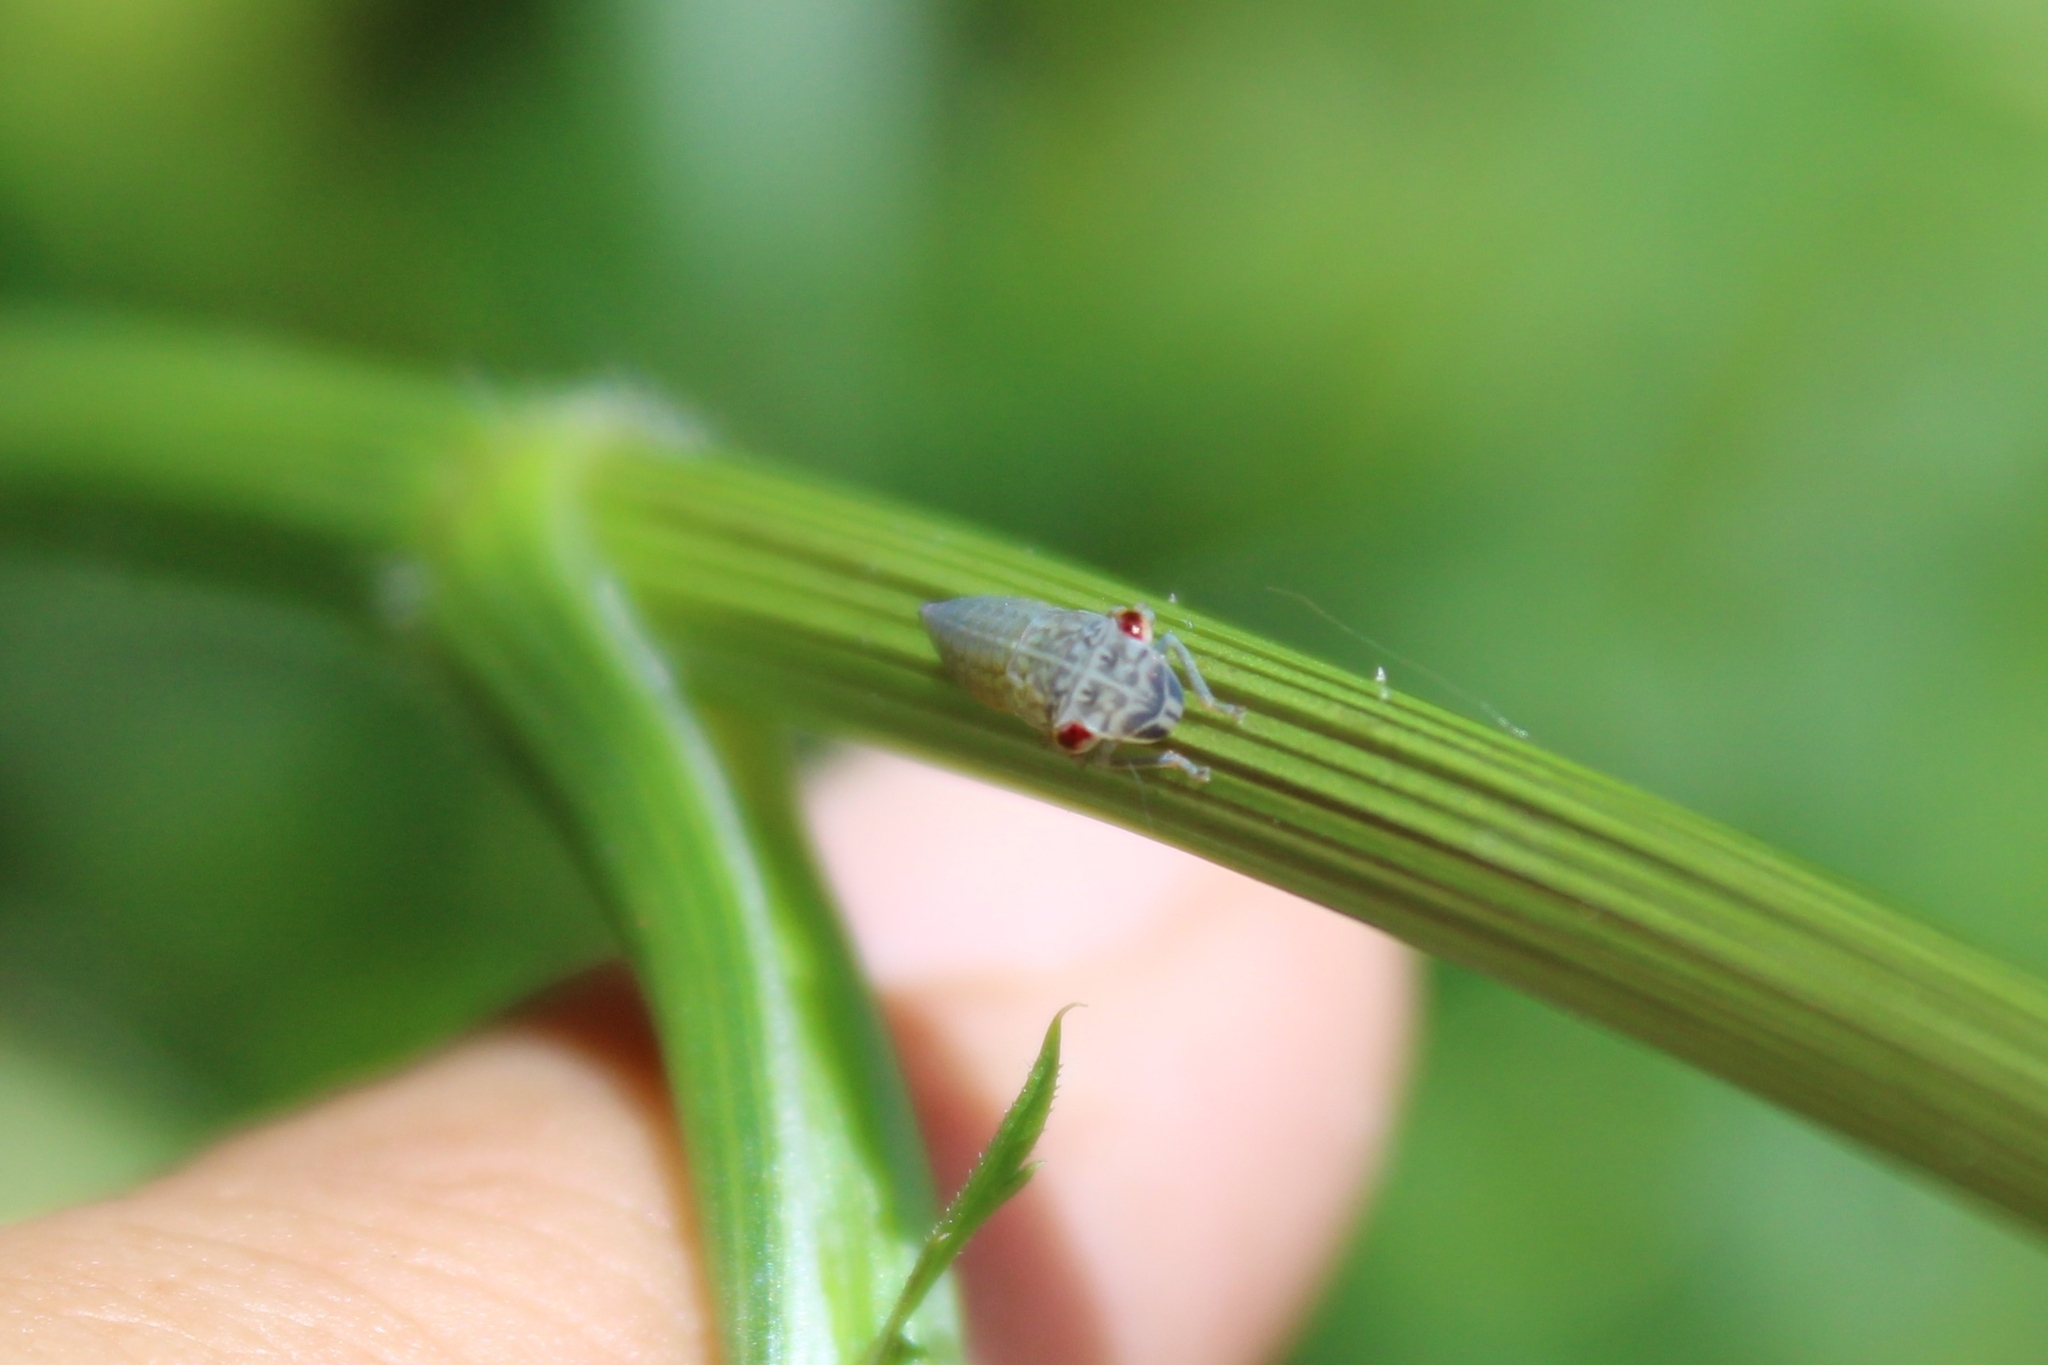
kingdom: Animalia
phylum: Arthropoda
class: Insecta
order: Hemiptera
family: Cicadellidae
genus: Oncometopia
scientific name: Oncometopia orbona
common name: Broad-headed sharpshooter
